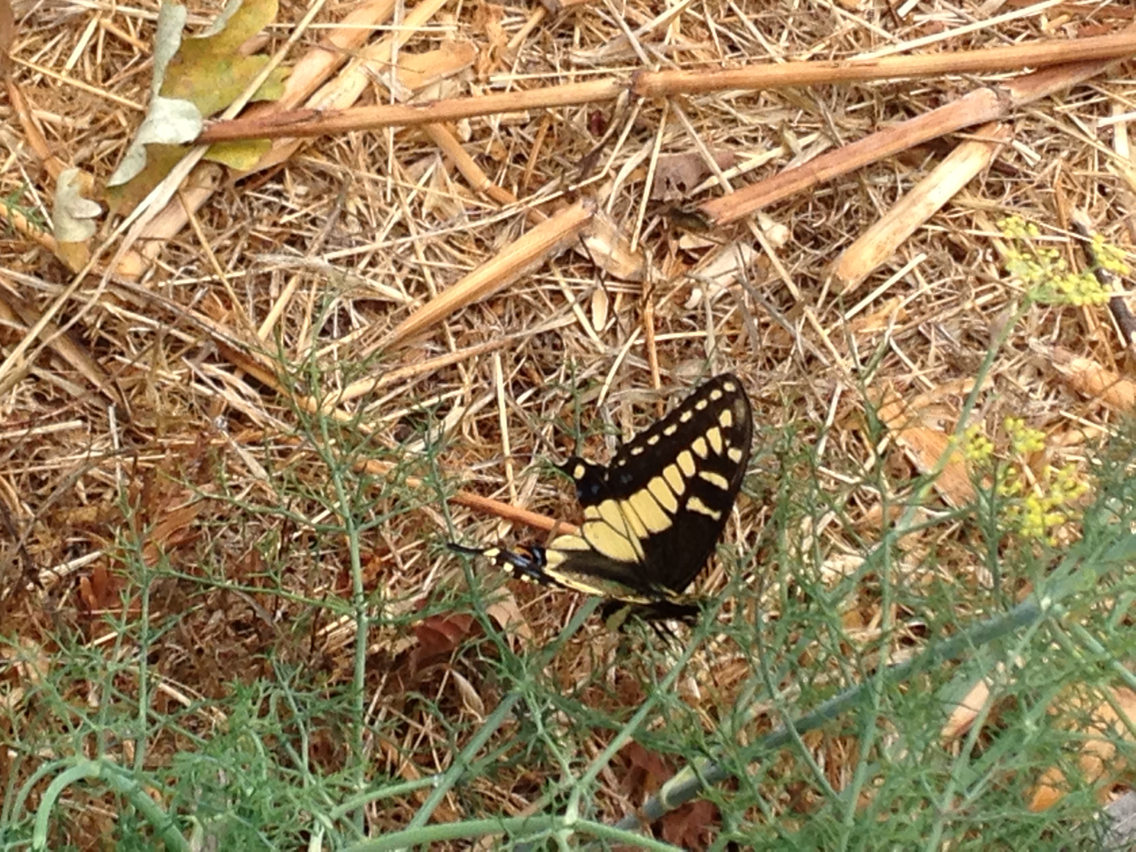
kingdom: Animalia
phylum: Arthropoda
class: Insecta
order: Lepidoptera
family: Papilionidae
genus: Papilio
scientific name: Papilio zelicaon
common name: Anise swallowtail
